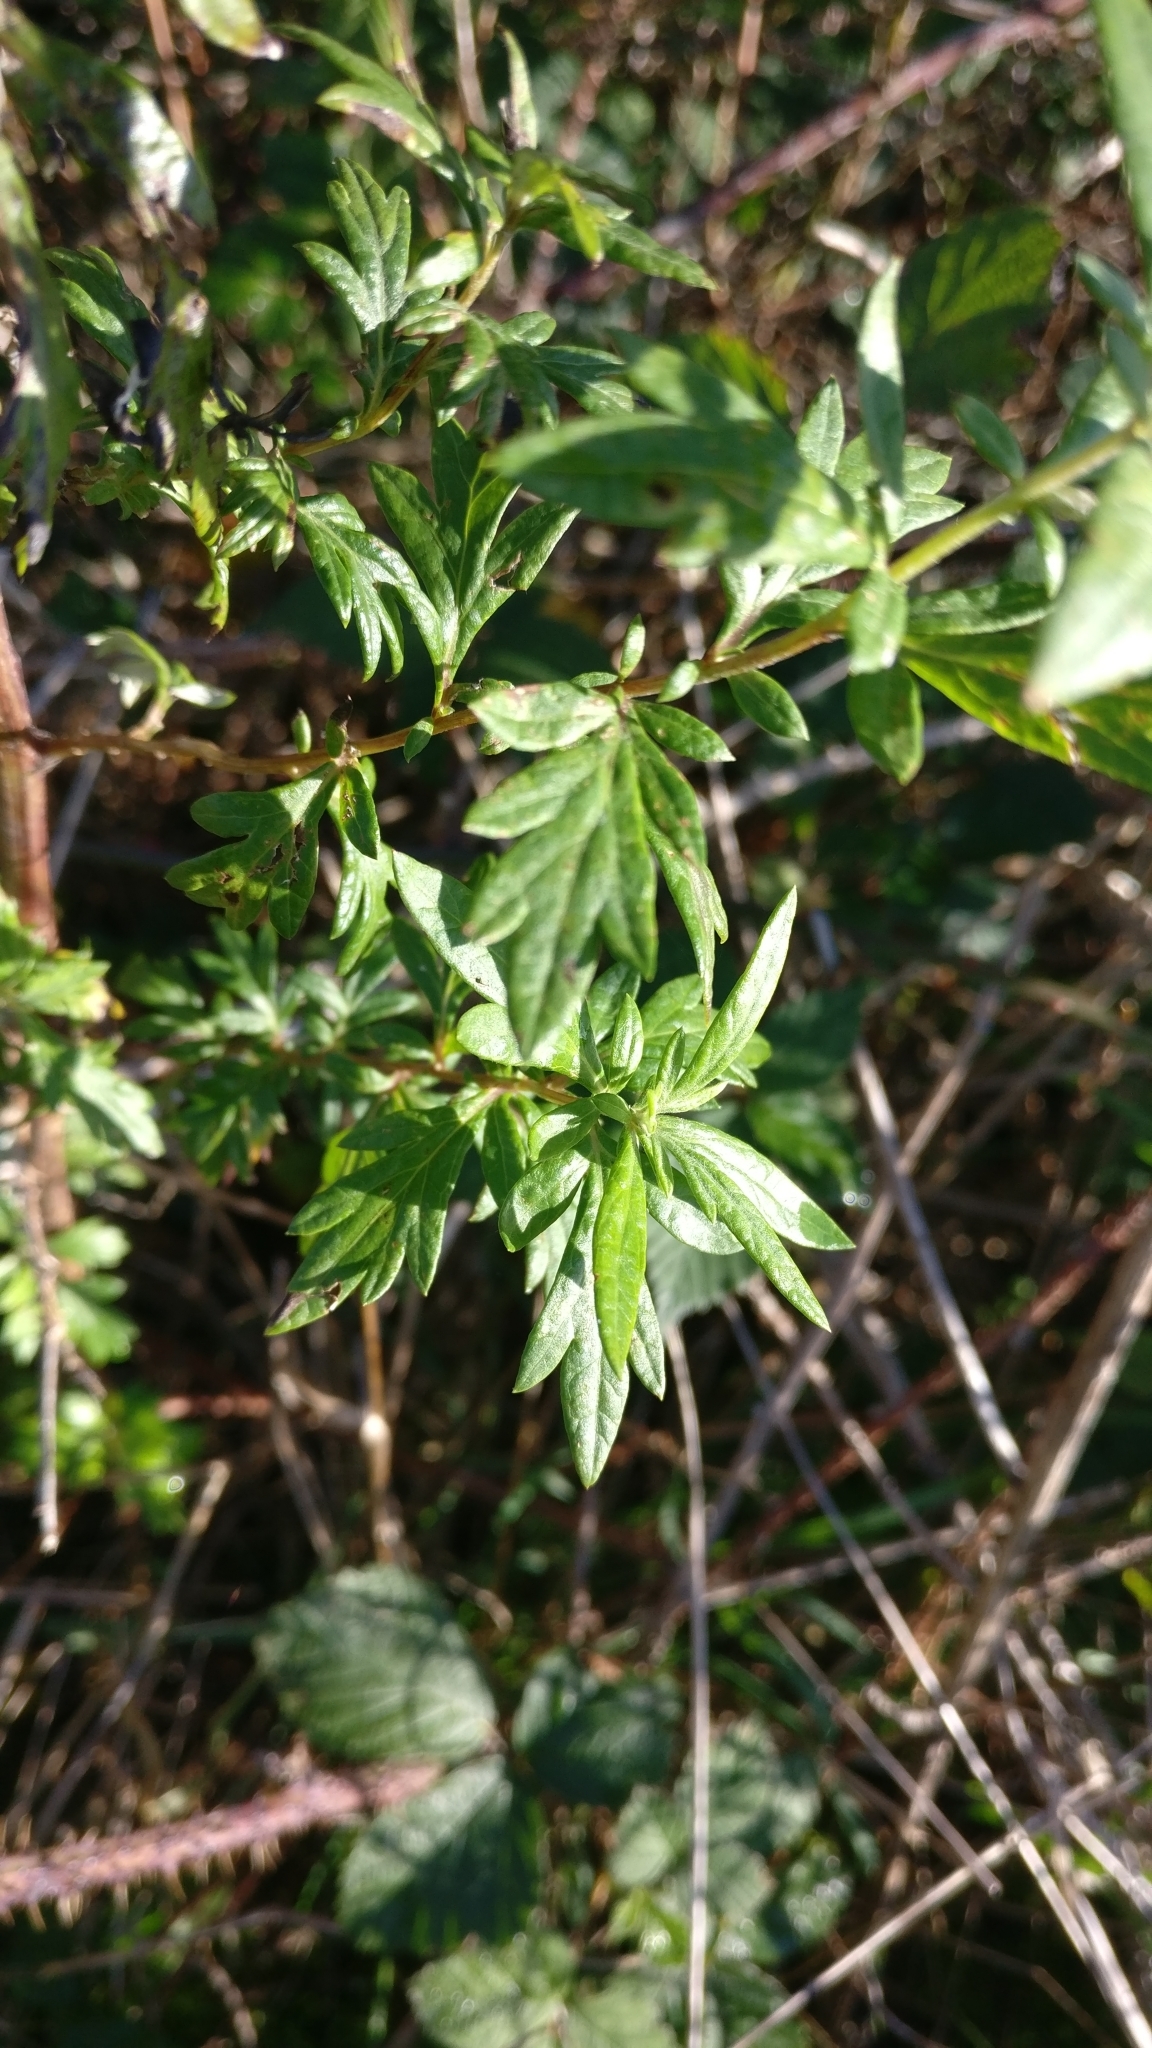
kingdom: Plantae
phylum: Tracheophyta
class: Magnoliopsida
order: Asterales
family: Asteraceae
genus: Artemisia
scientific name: Artemisia vulgaris
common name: Mugwort
